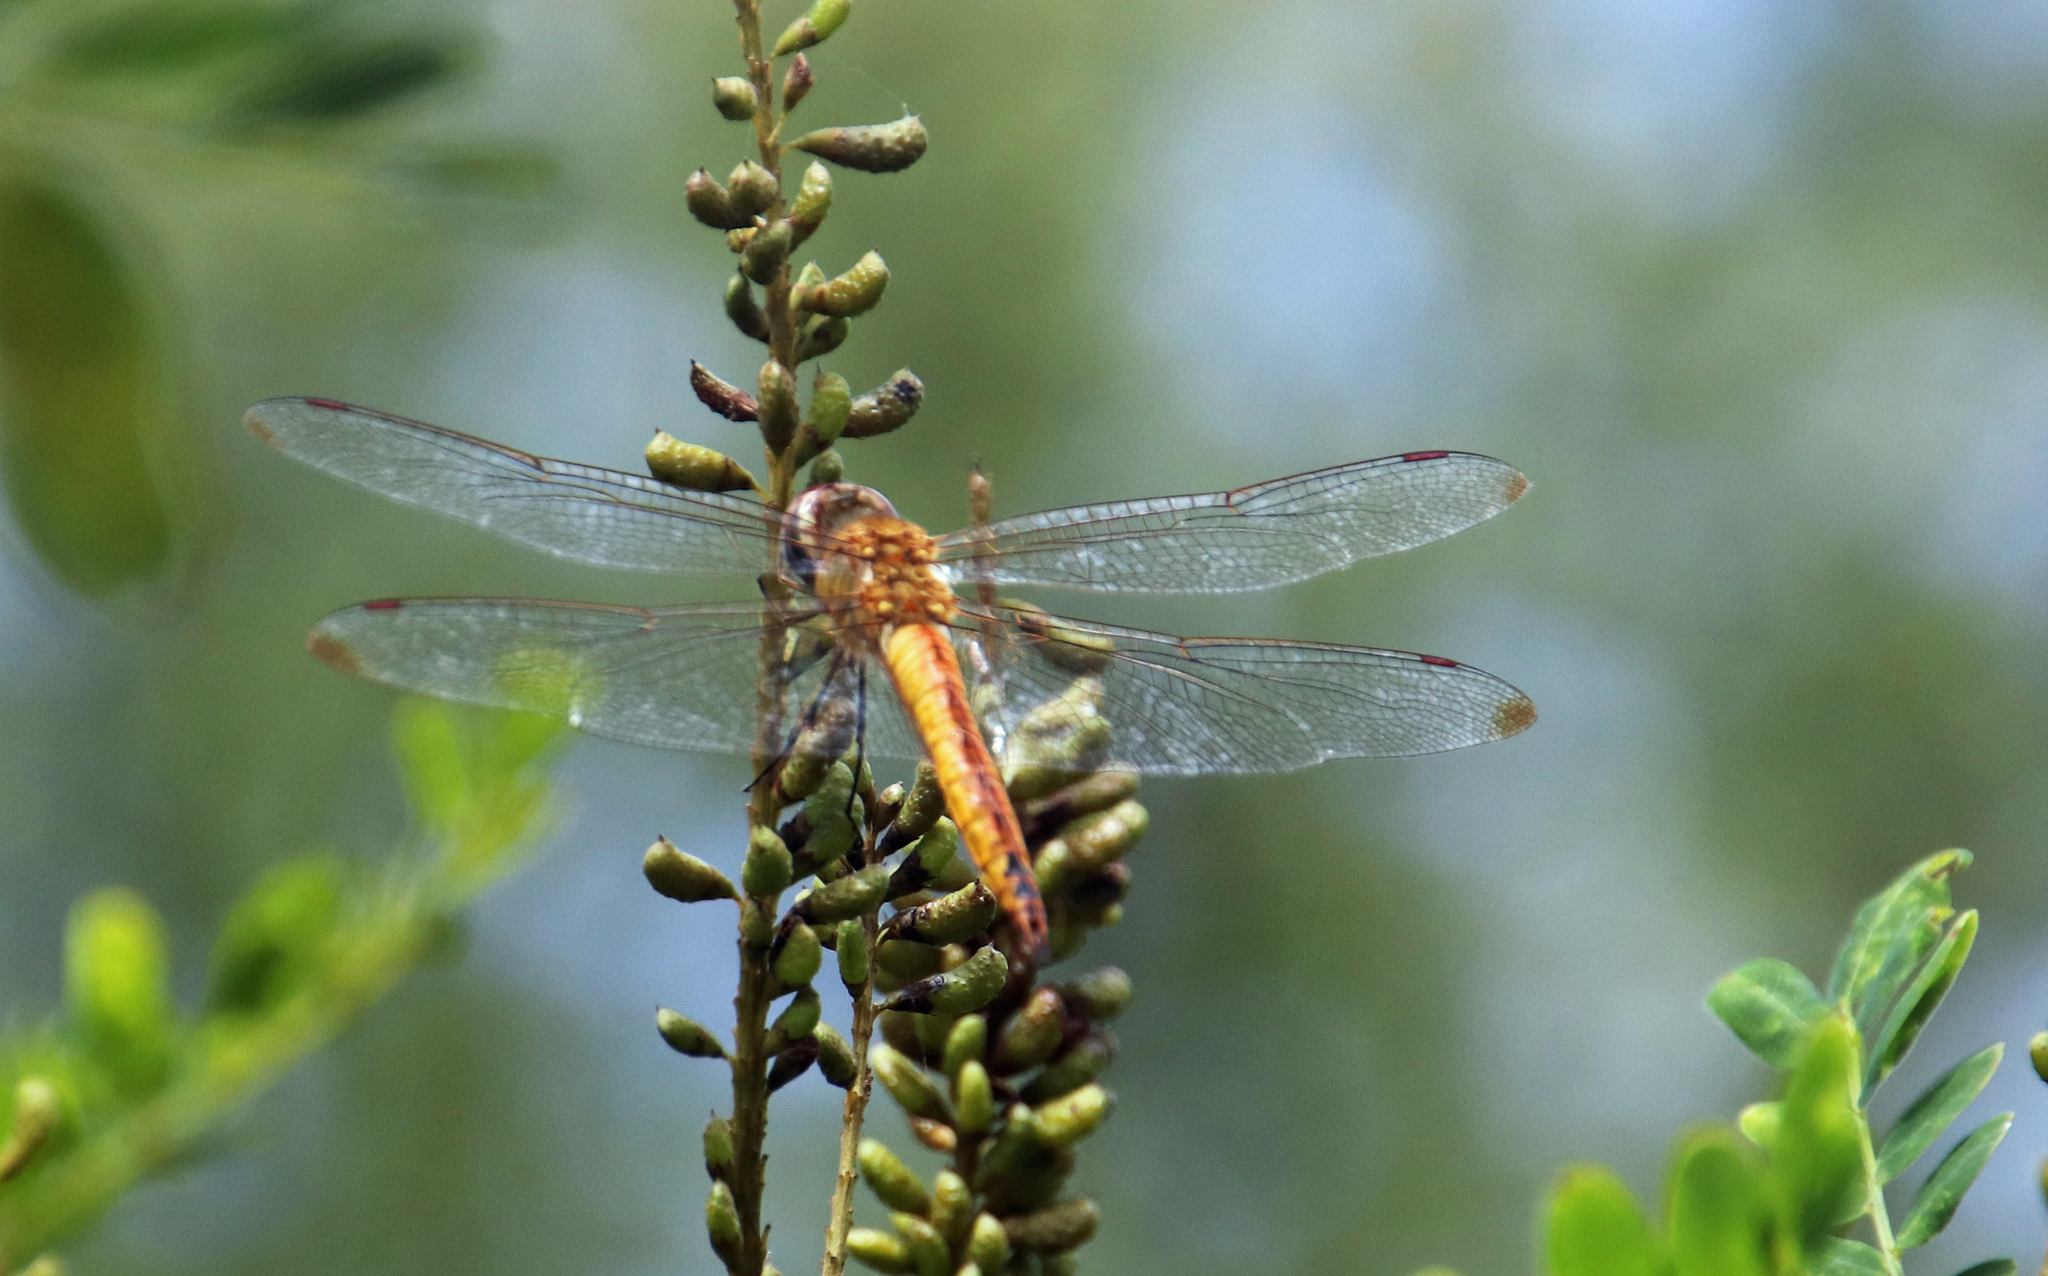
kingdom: Animalia
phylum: Arthropoda
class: Insecta
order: Odonata
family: Libellulidae
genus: Pantala
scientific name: Pantala flavescens
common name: Wandering glider
